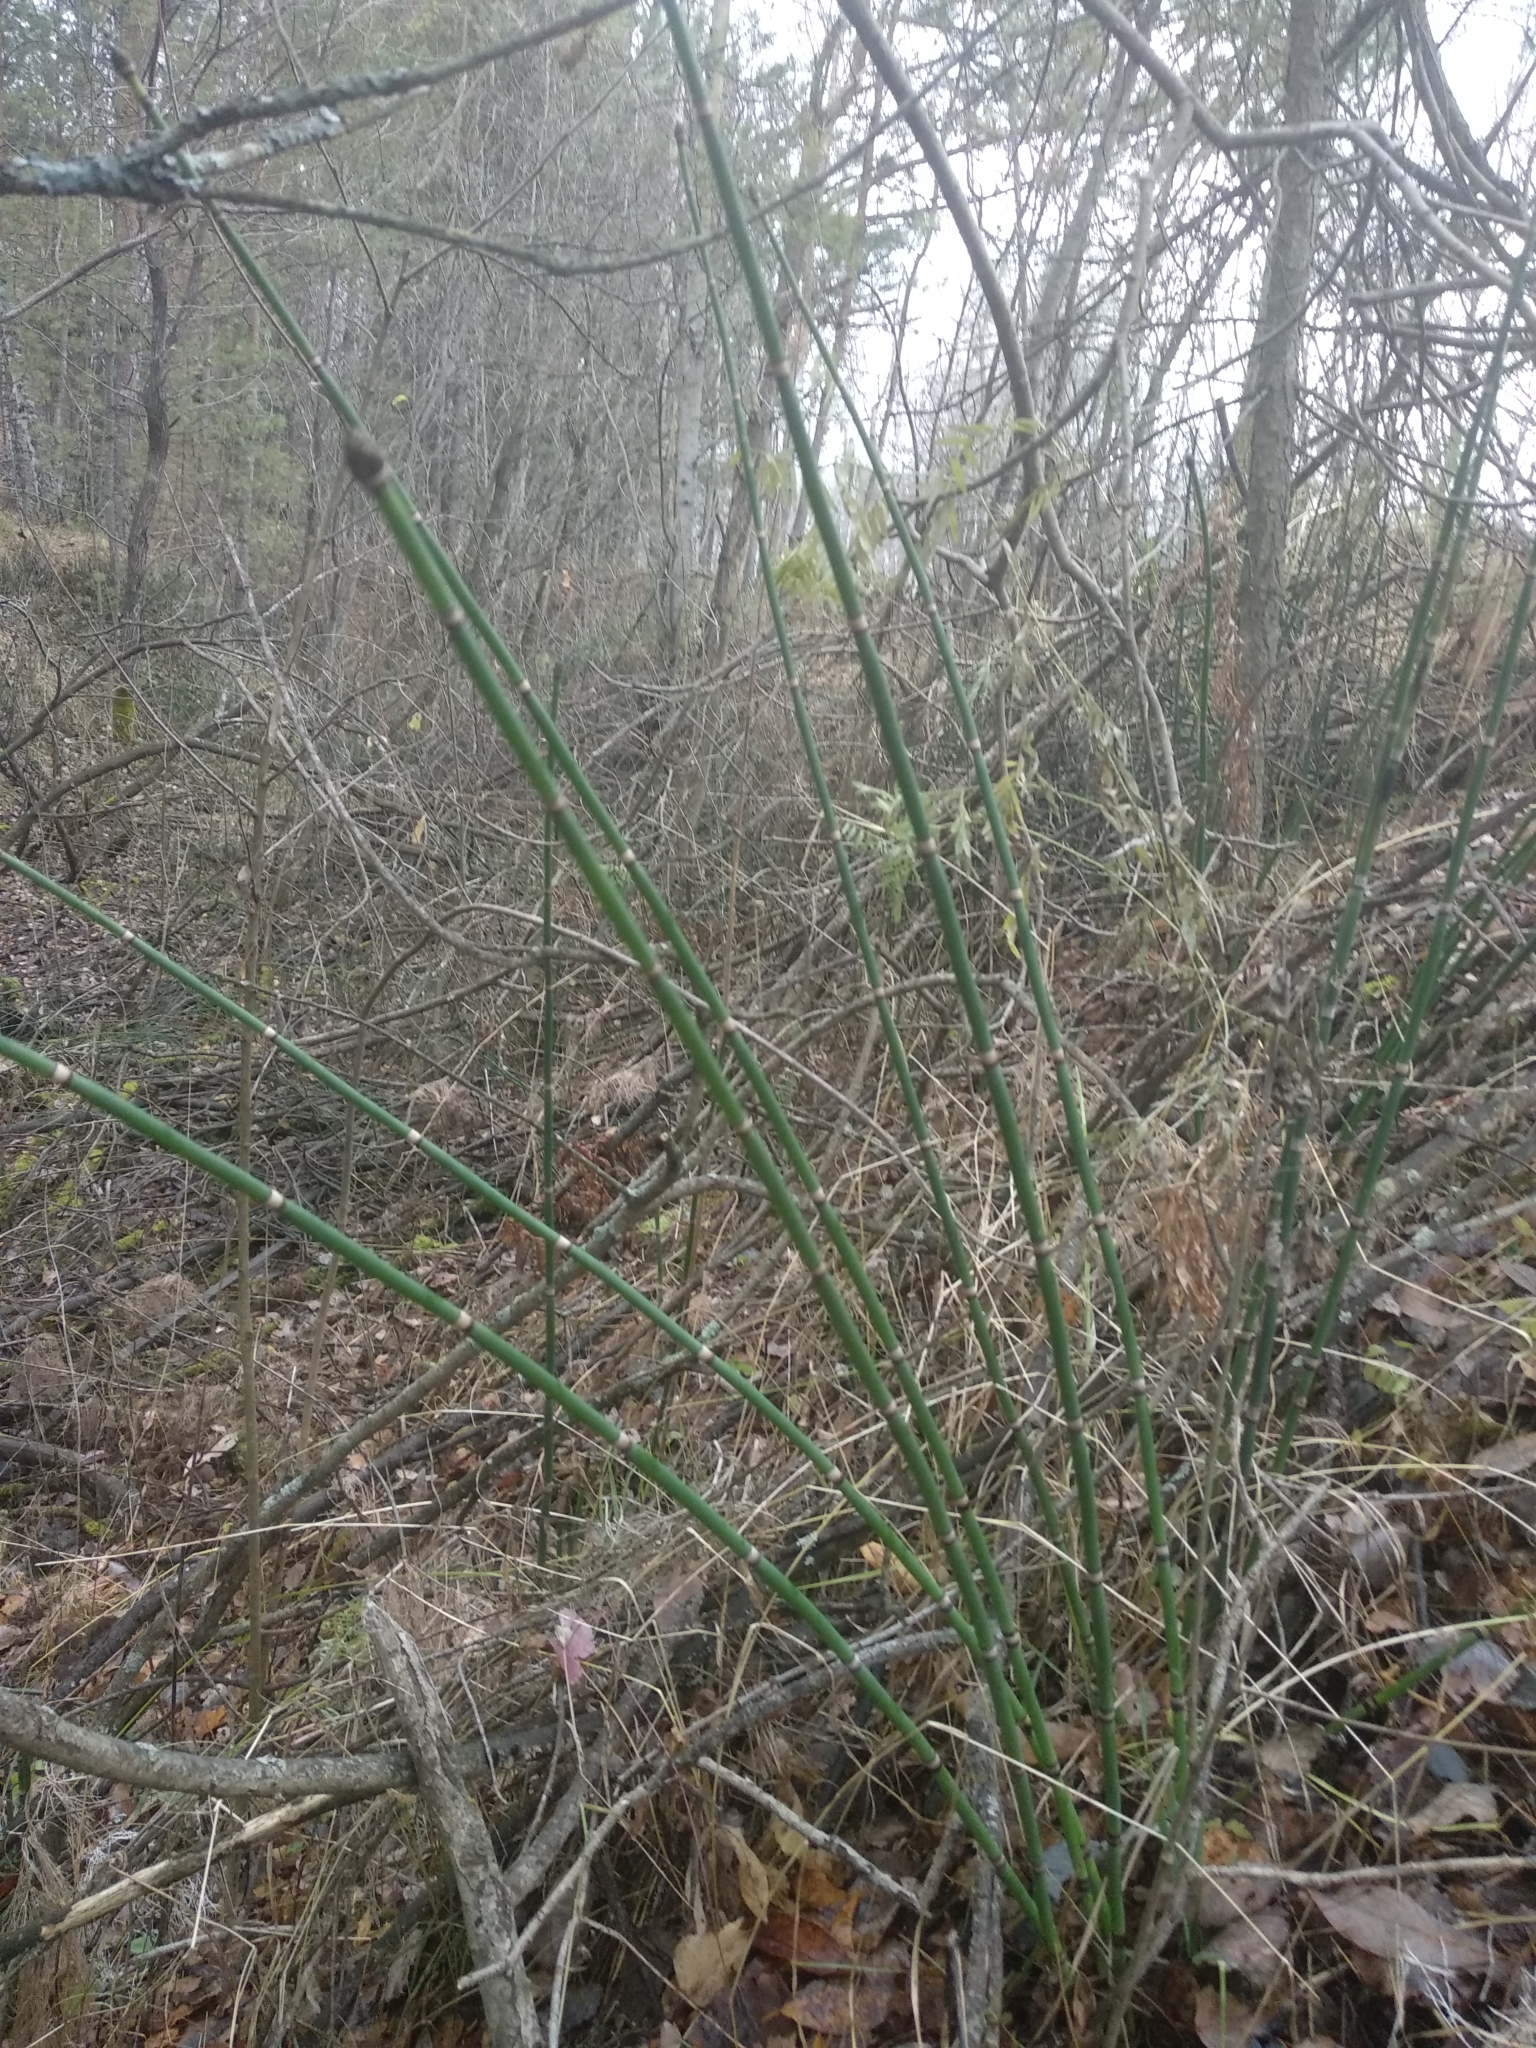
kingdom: Plantae
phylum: Tracheophyta
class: Polypodiopsida
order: Equisetales
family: Equisetaceae
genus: Equisetum
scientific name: Equisetum hyemale
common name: Rough horsetail
